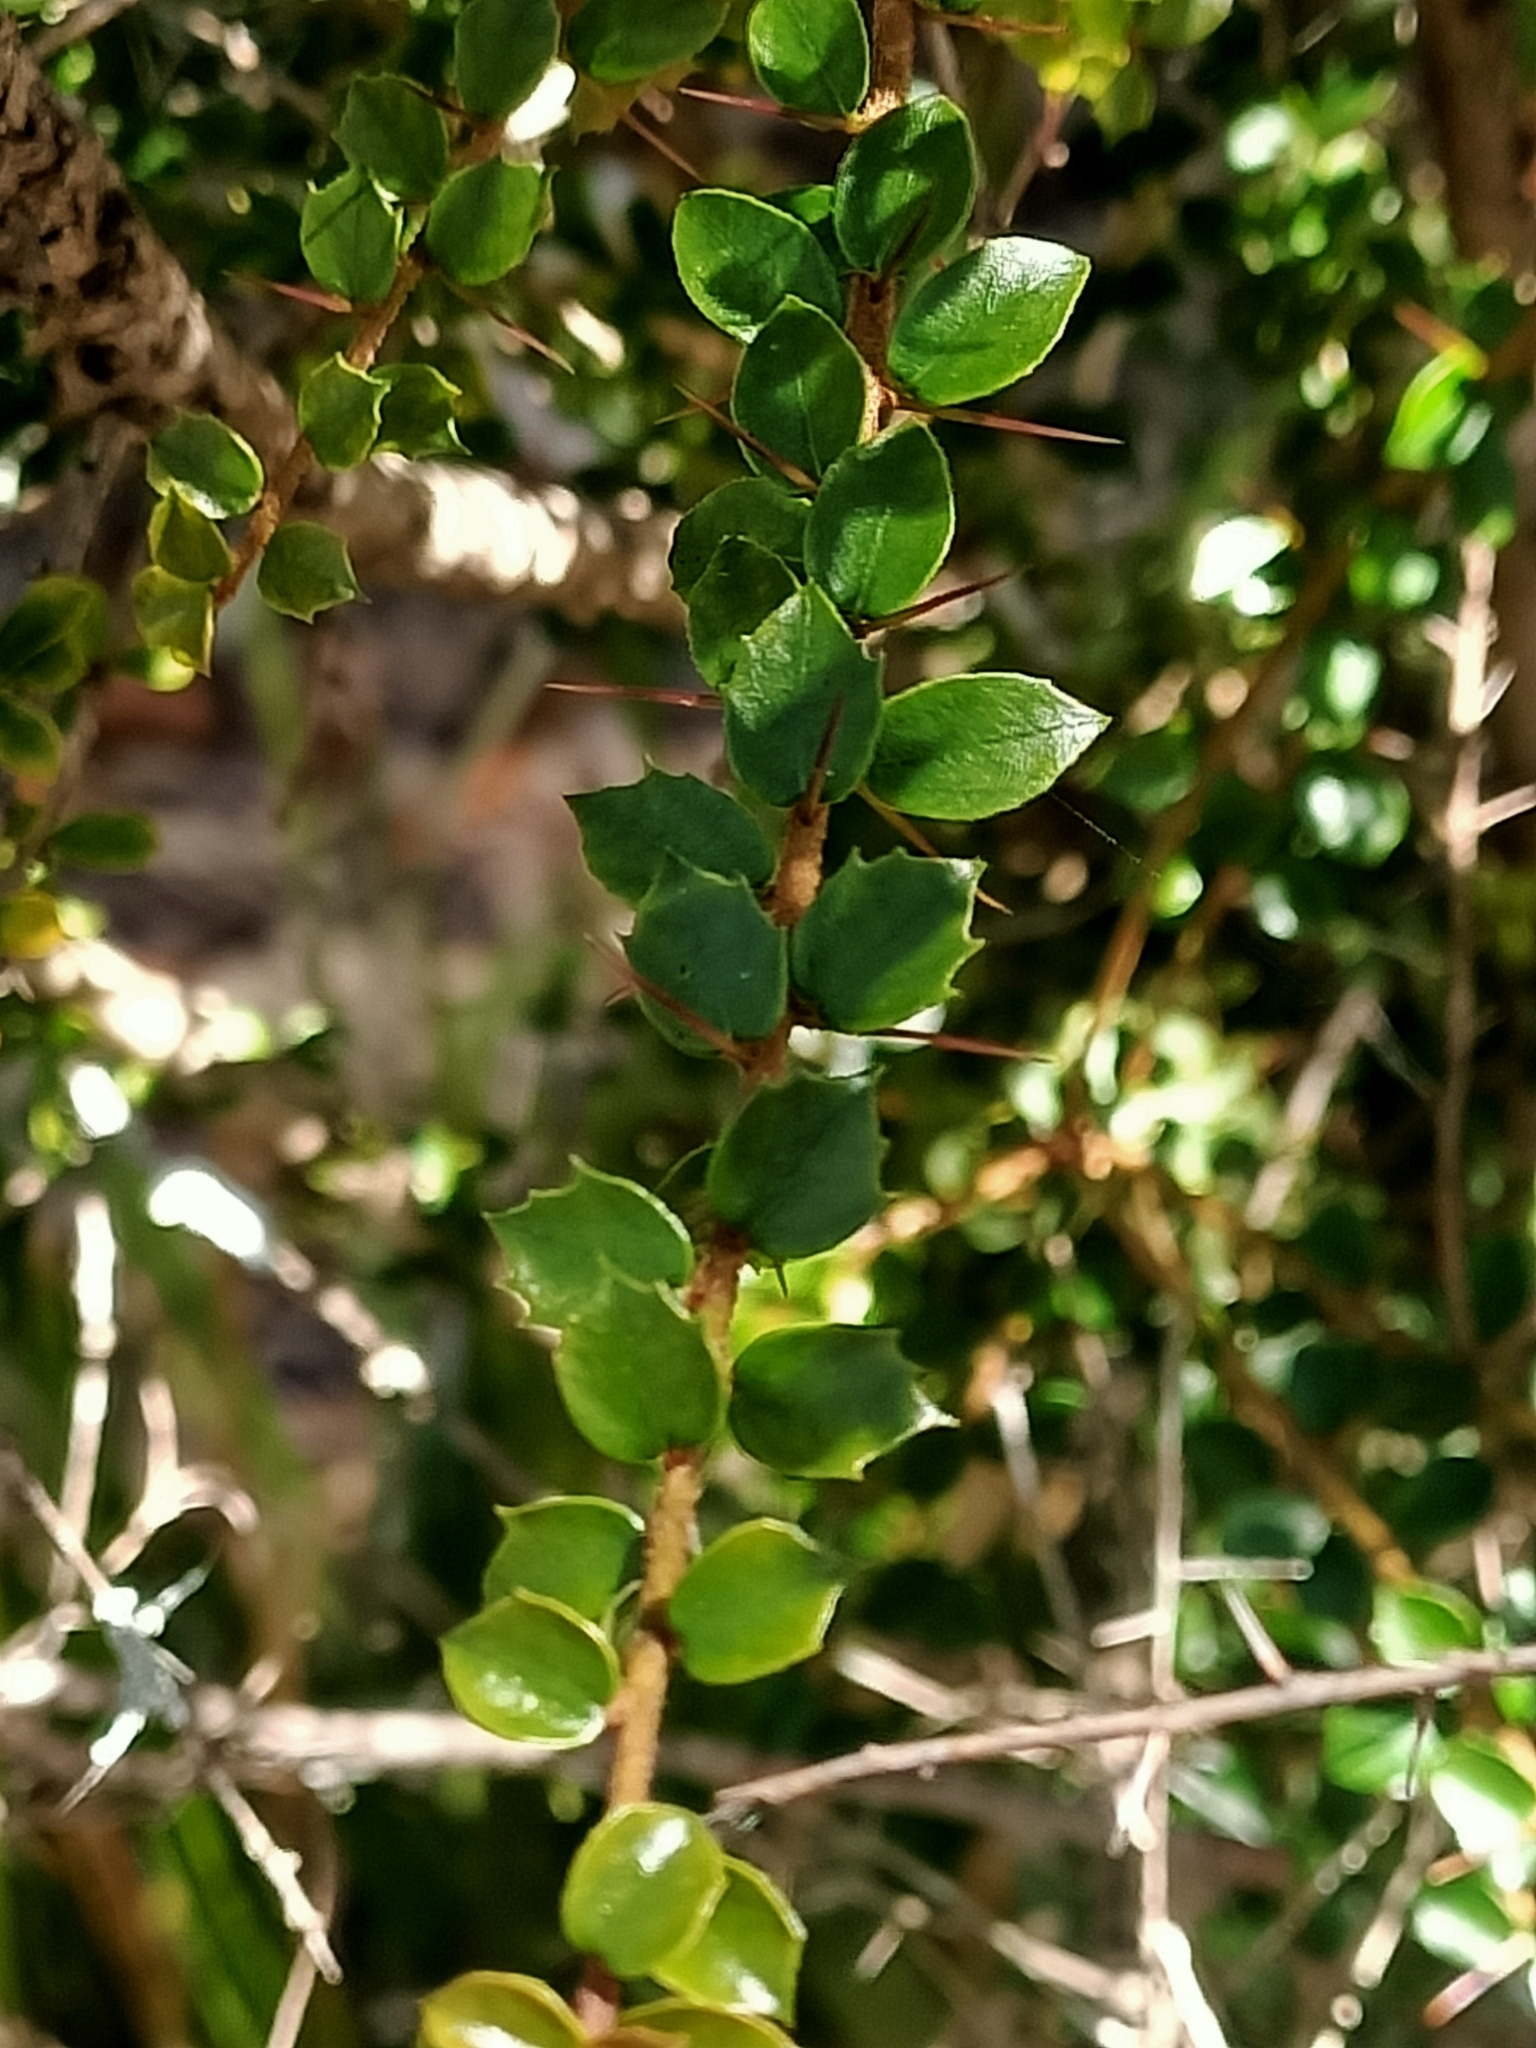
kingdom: Plantae
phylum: Tracheophyta
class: Magnoliopsida
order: Apiales
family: Pittosporaceae
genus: Pittosporum
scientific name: Pittosporum multiflorum
